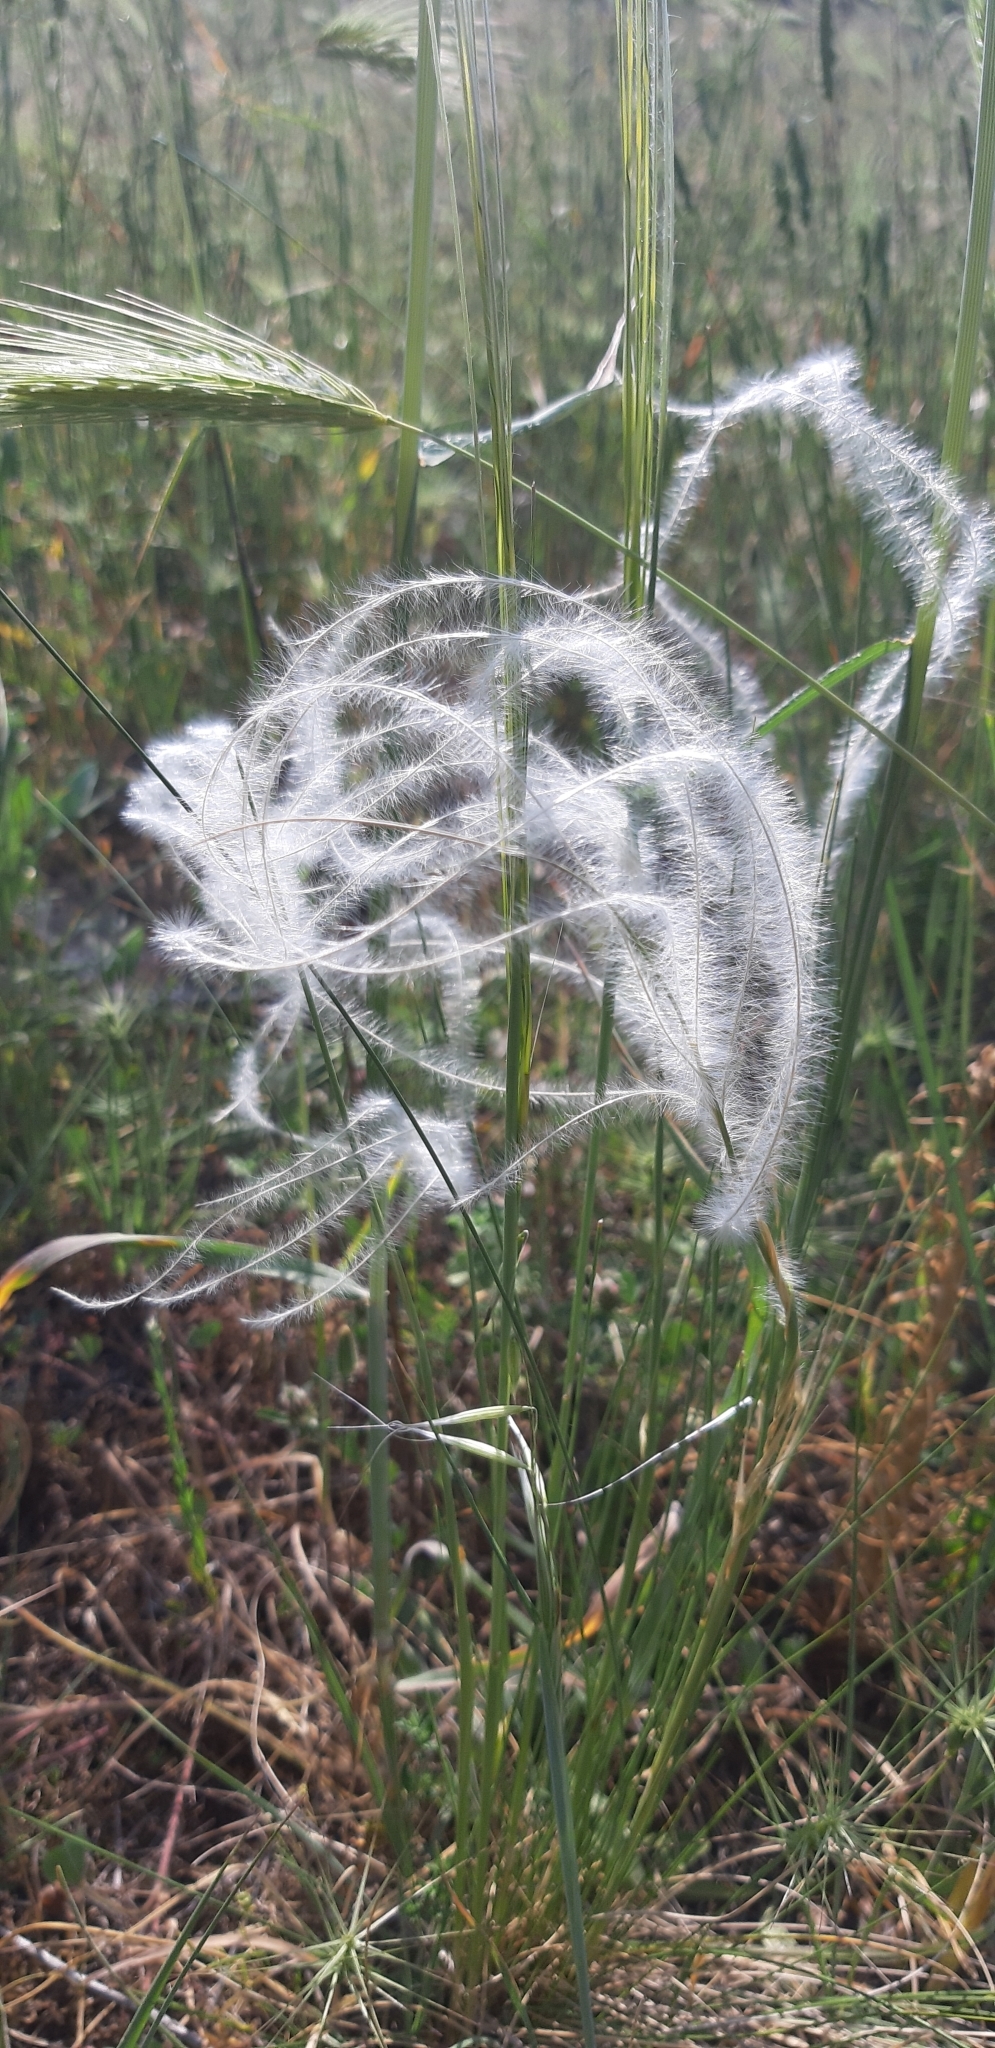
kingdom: Plantae
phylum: Tracheophyta
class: Liliopsida
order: Poales
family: Poaceae
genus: Stipa
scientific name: Stipa austroitalica
